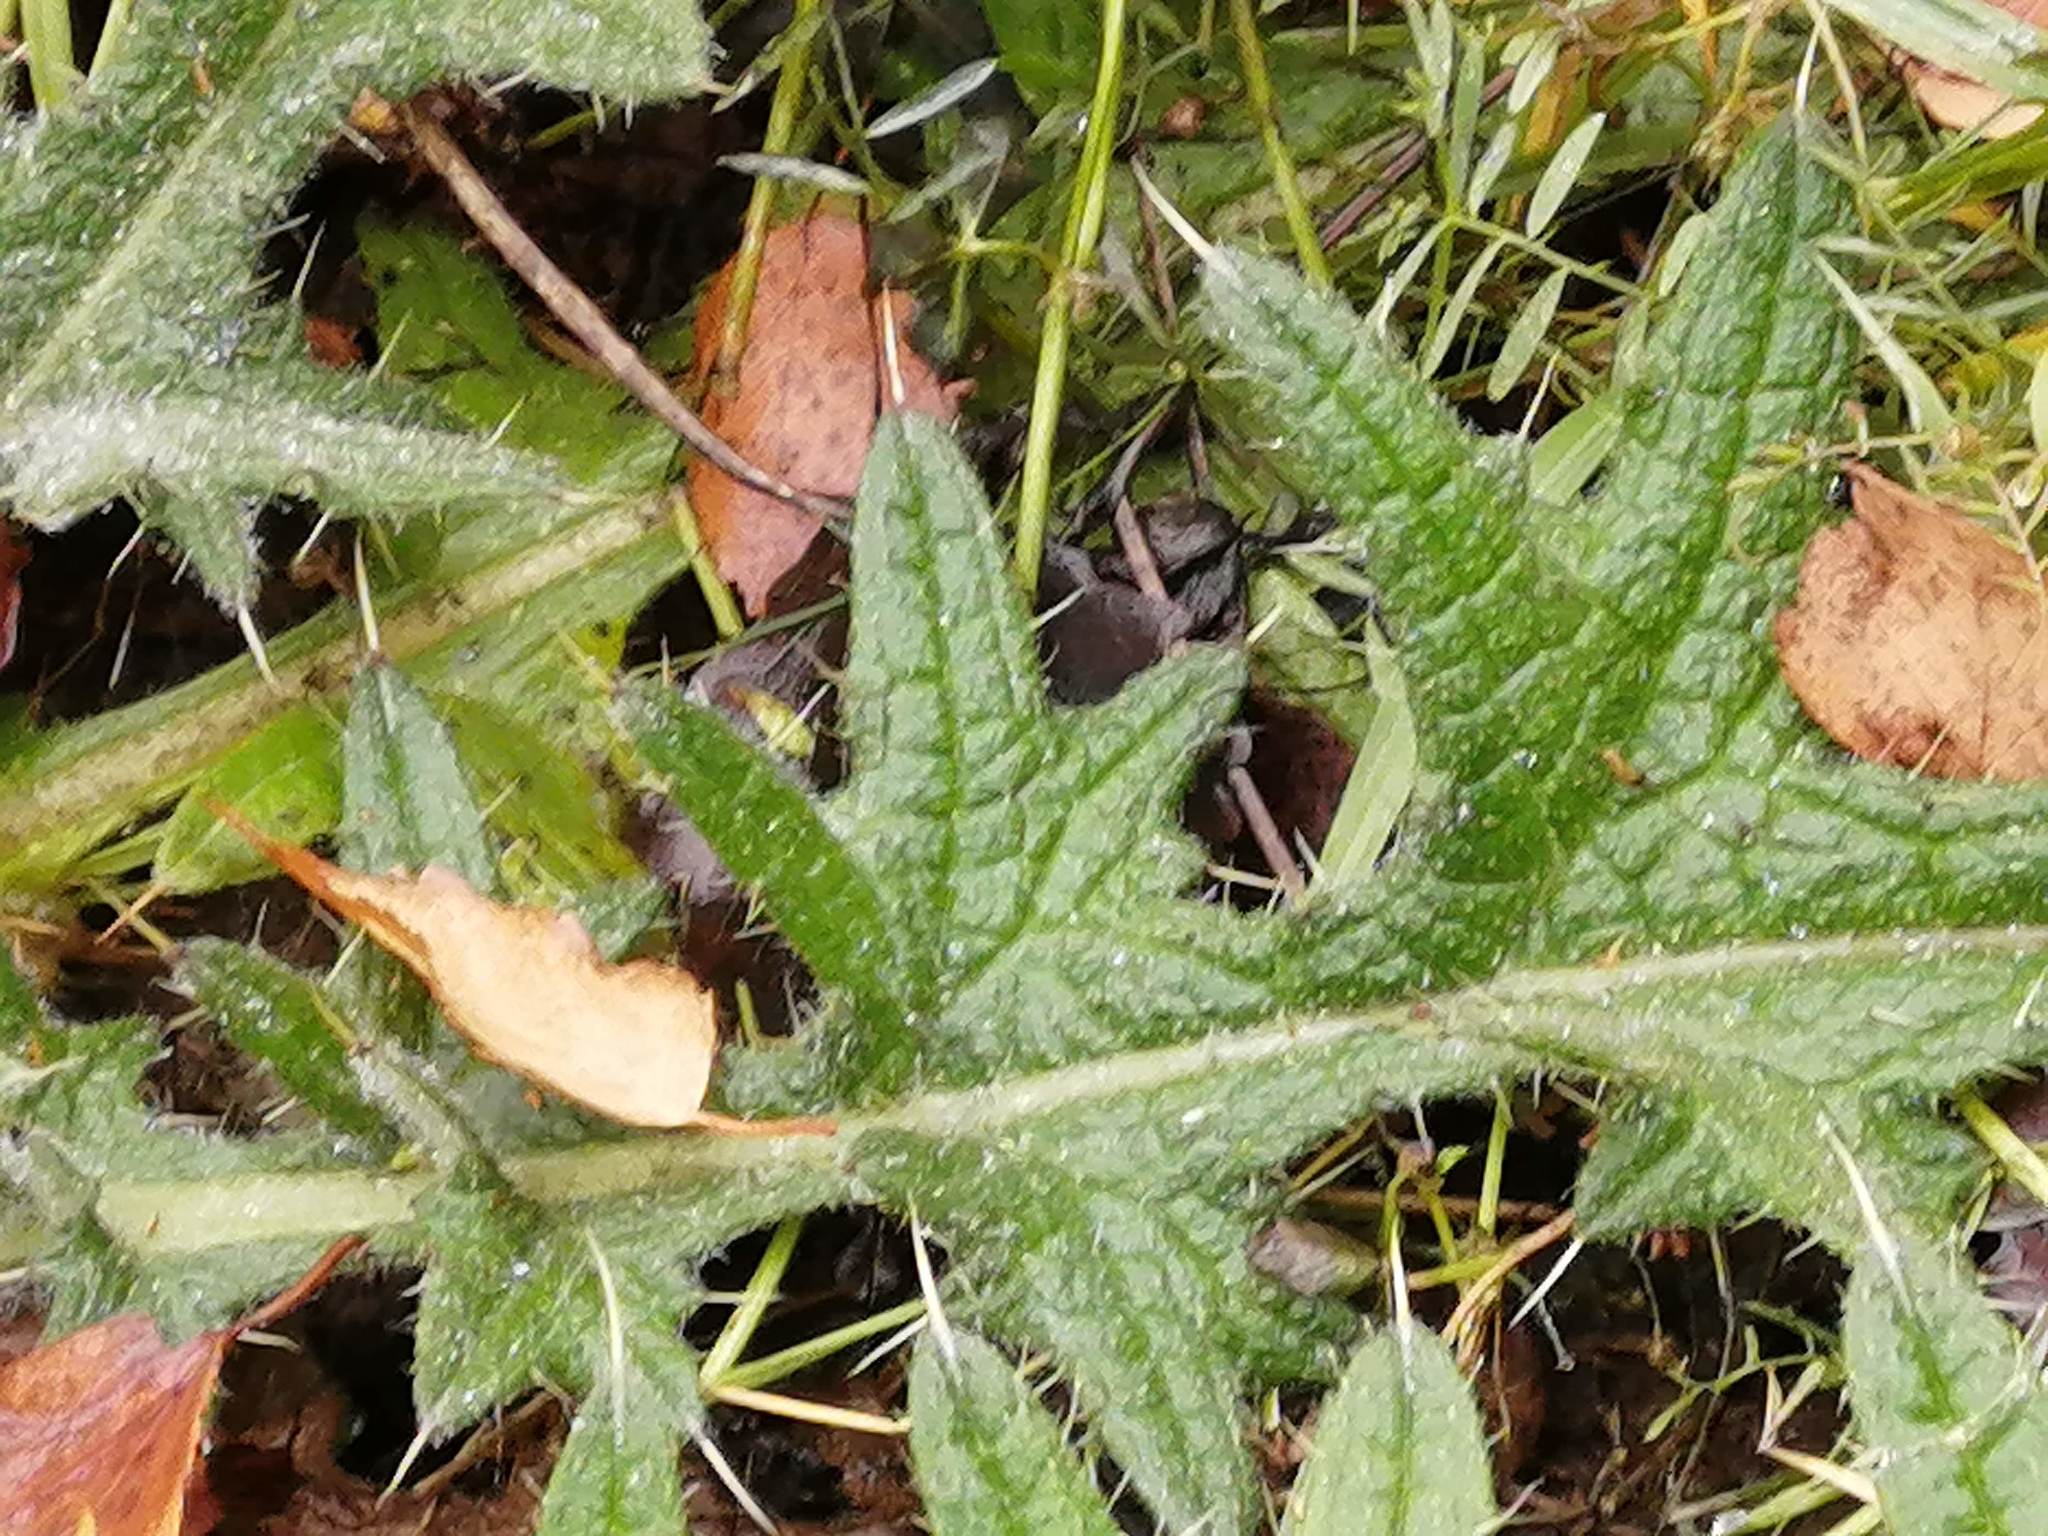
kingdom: Plantae
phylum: Tracheophyta
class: Magnoliopsida
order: Asterales
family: Asteraceae
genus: Cirsium
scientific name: Cirsium vulgare
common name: Bull thistle
